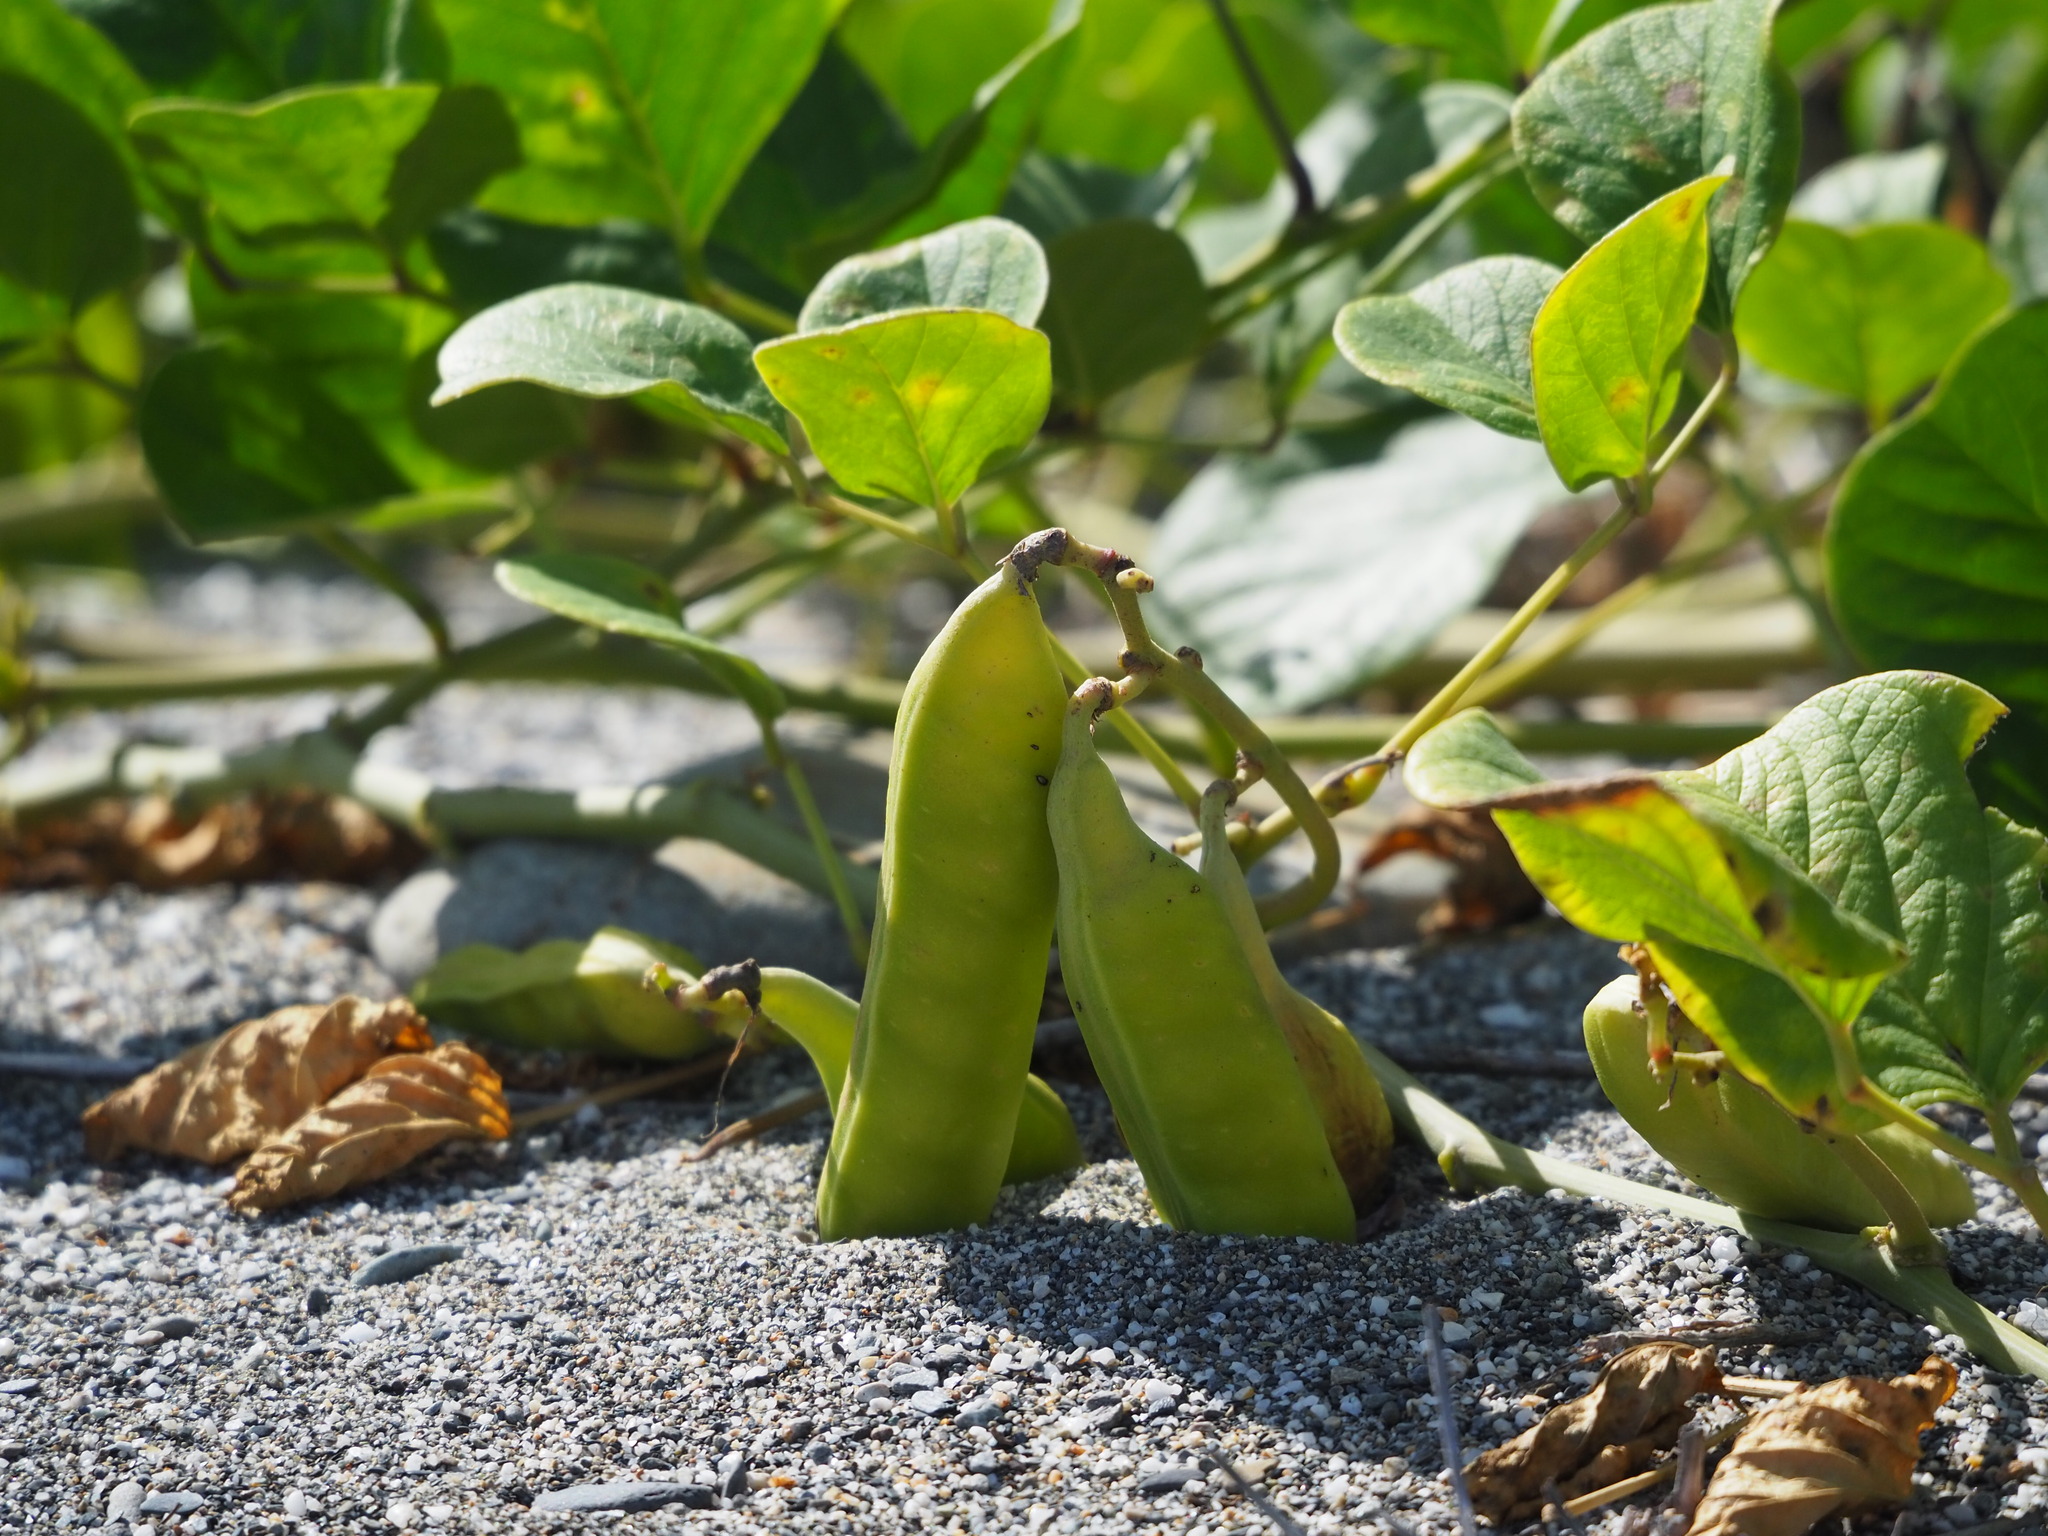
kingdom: Plantae
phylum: Tracheophyta
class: Magnoliopsida
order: Fabales
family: Fabaceae
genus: Canavalia
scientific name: Canavalia rosea
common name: Beach-bean
